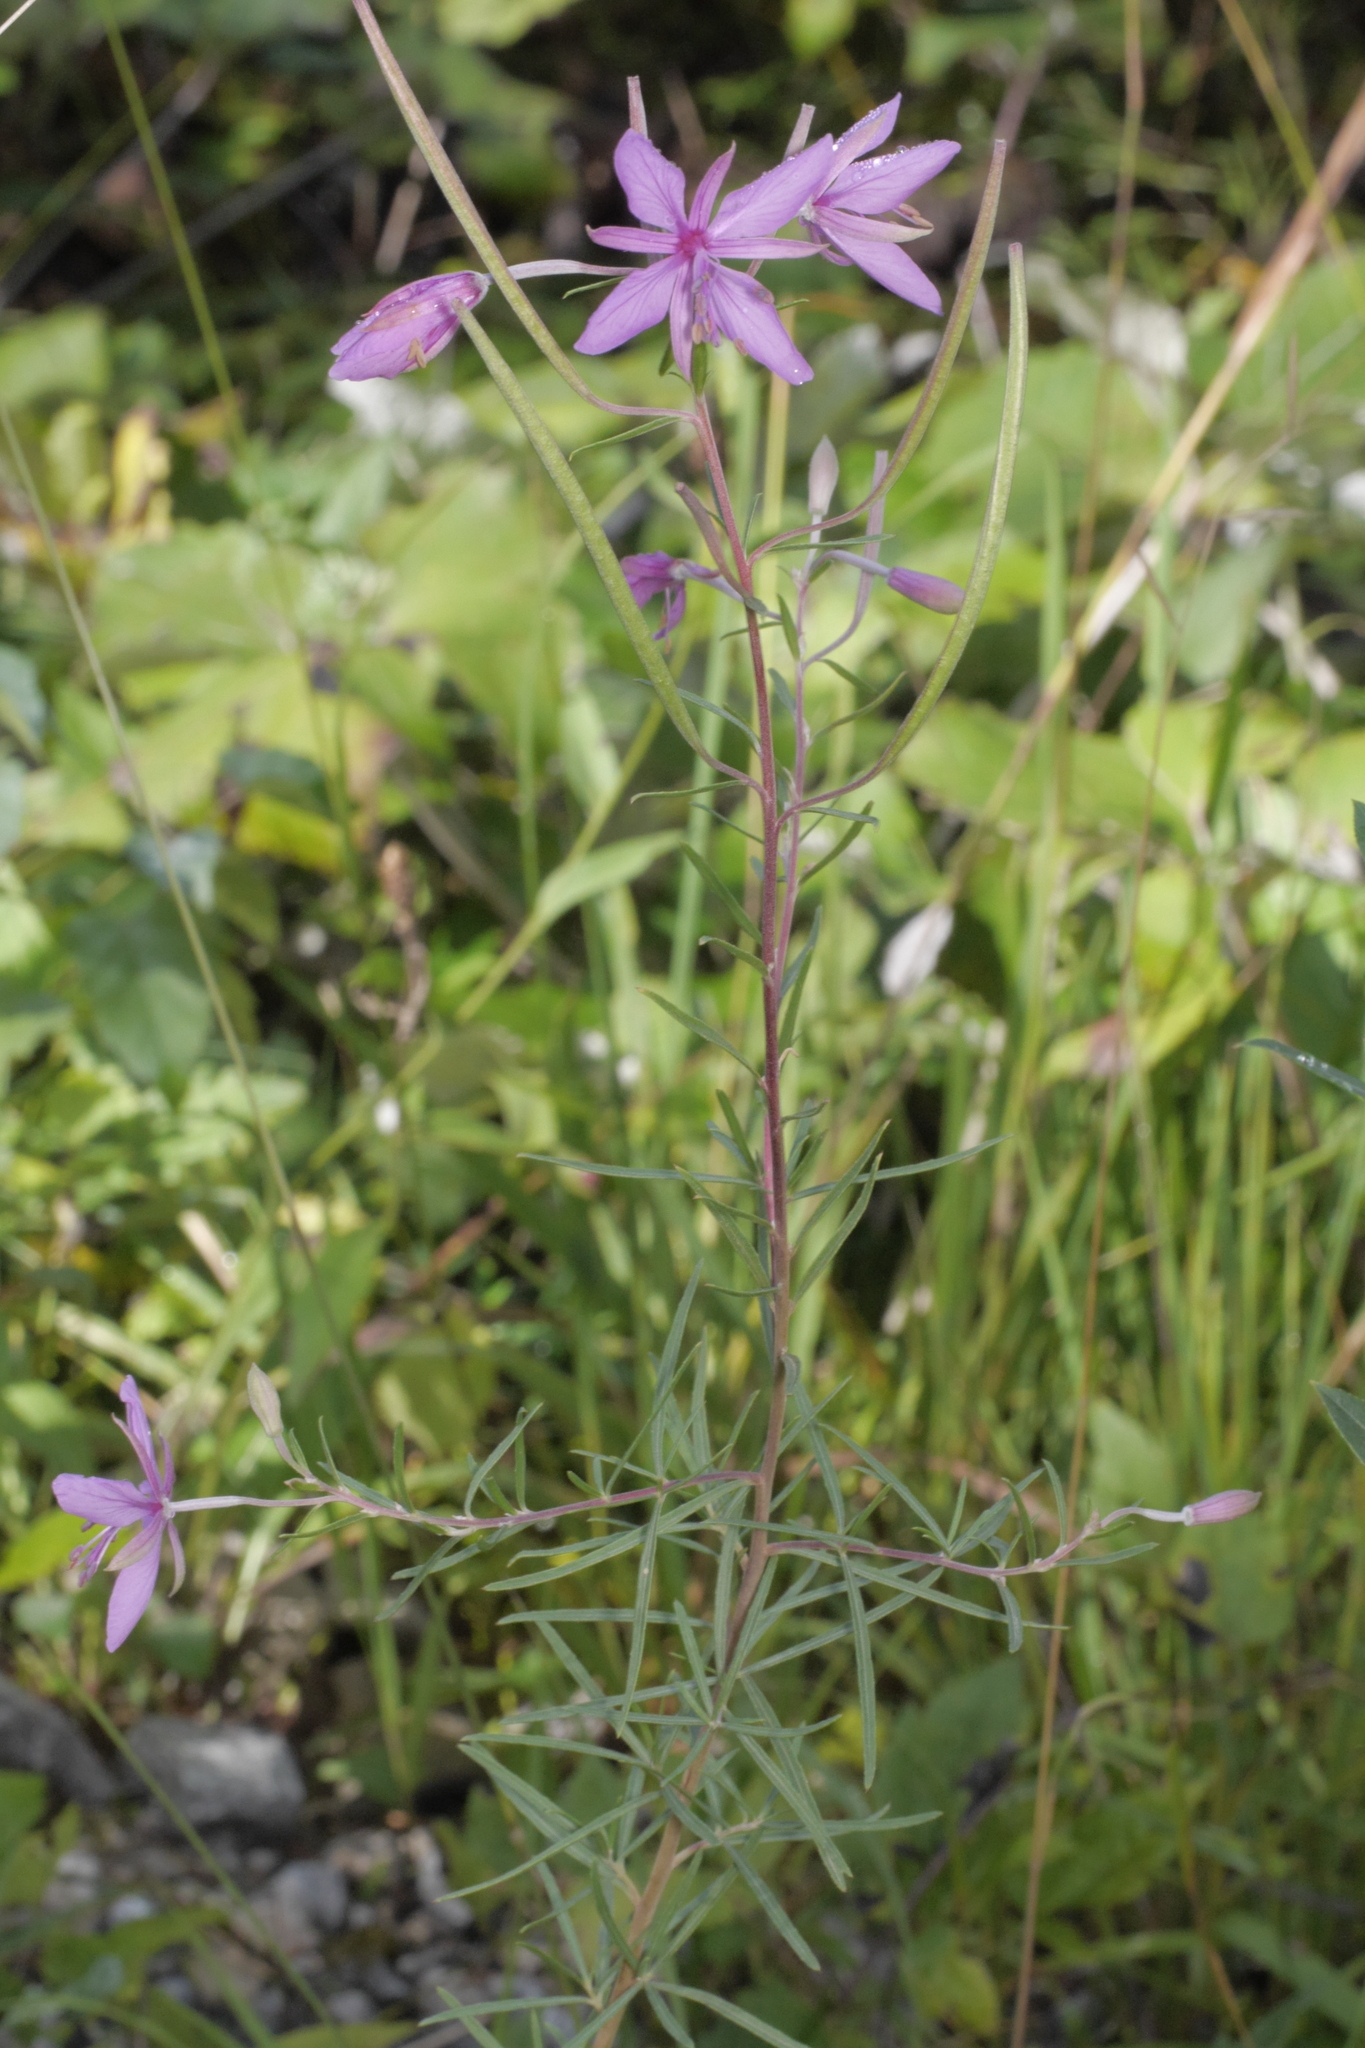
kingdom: Plantae
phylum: Tracheophyta
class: Magnoliopsida
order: Myrtales
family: Onagraceae
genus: Chamaenerion
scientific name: Chamaenerion dodonaei
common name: Rosemary-leaved willowherb
